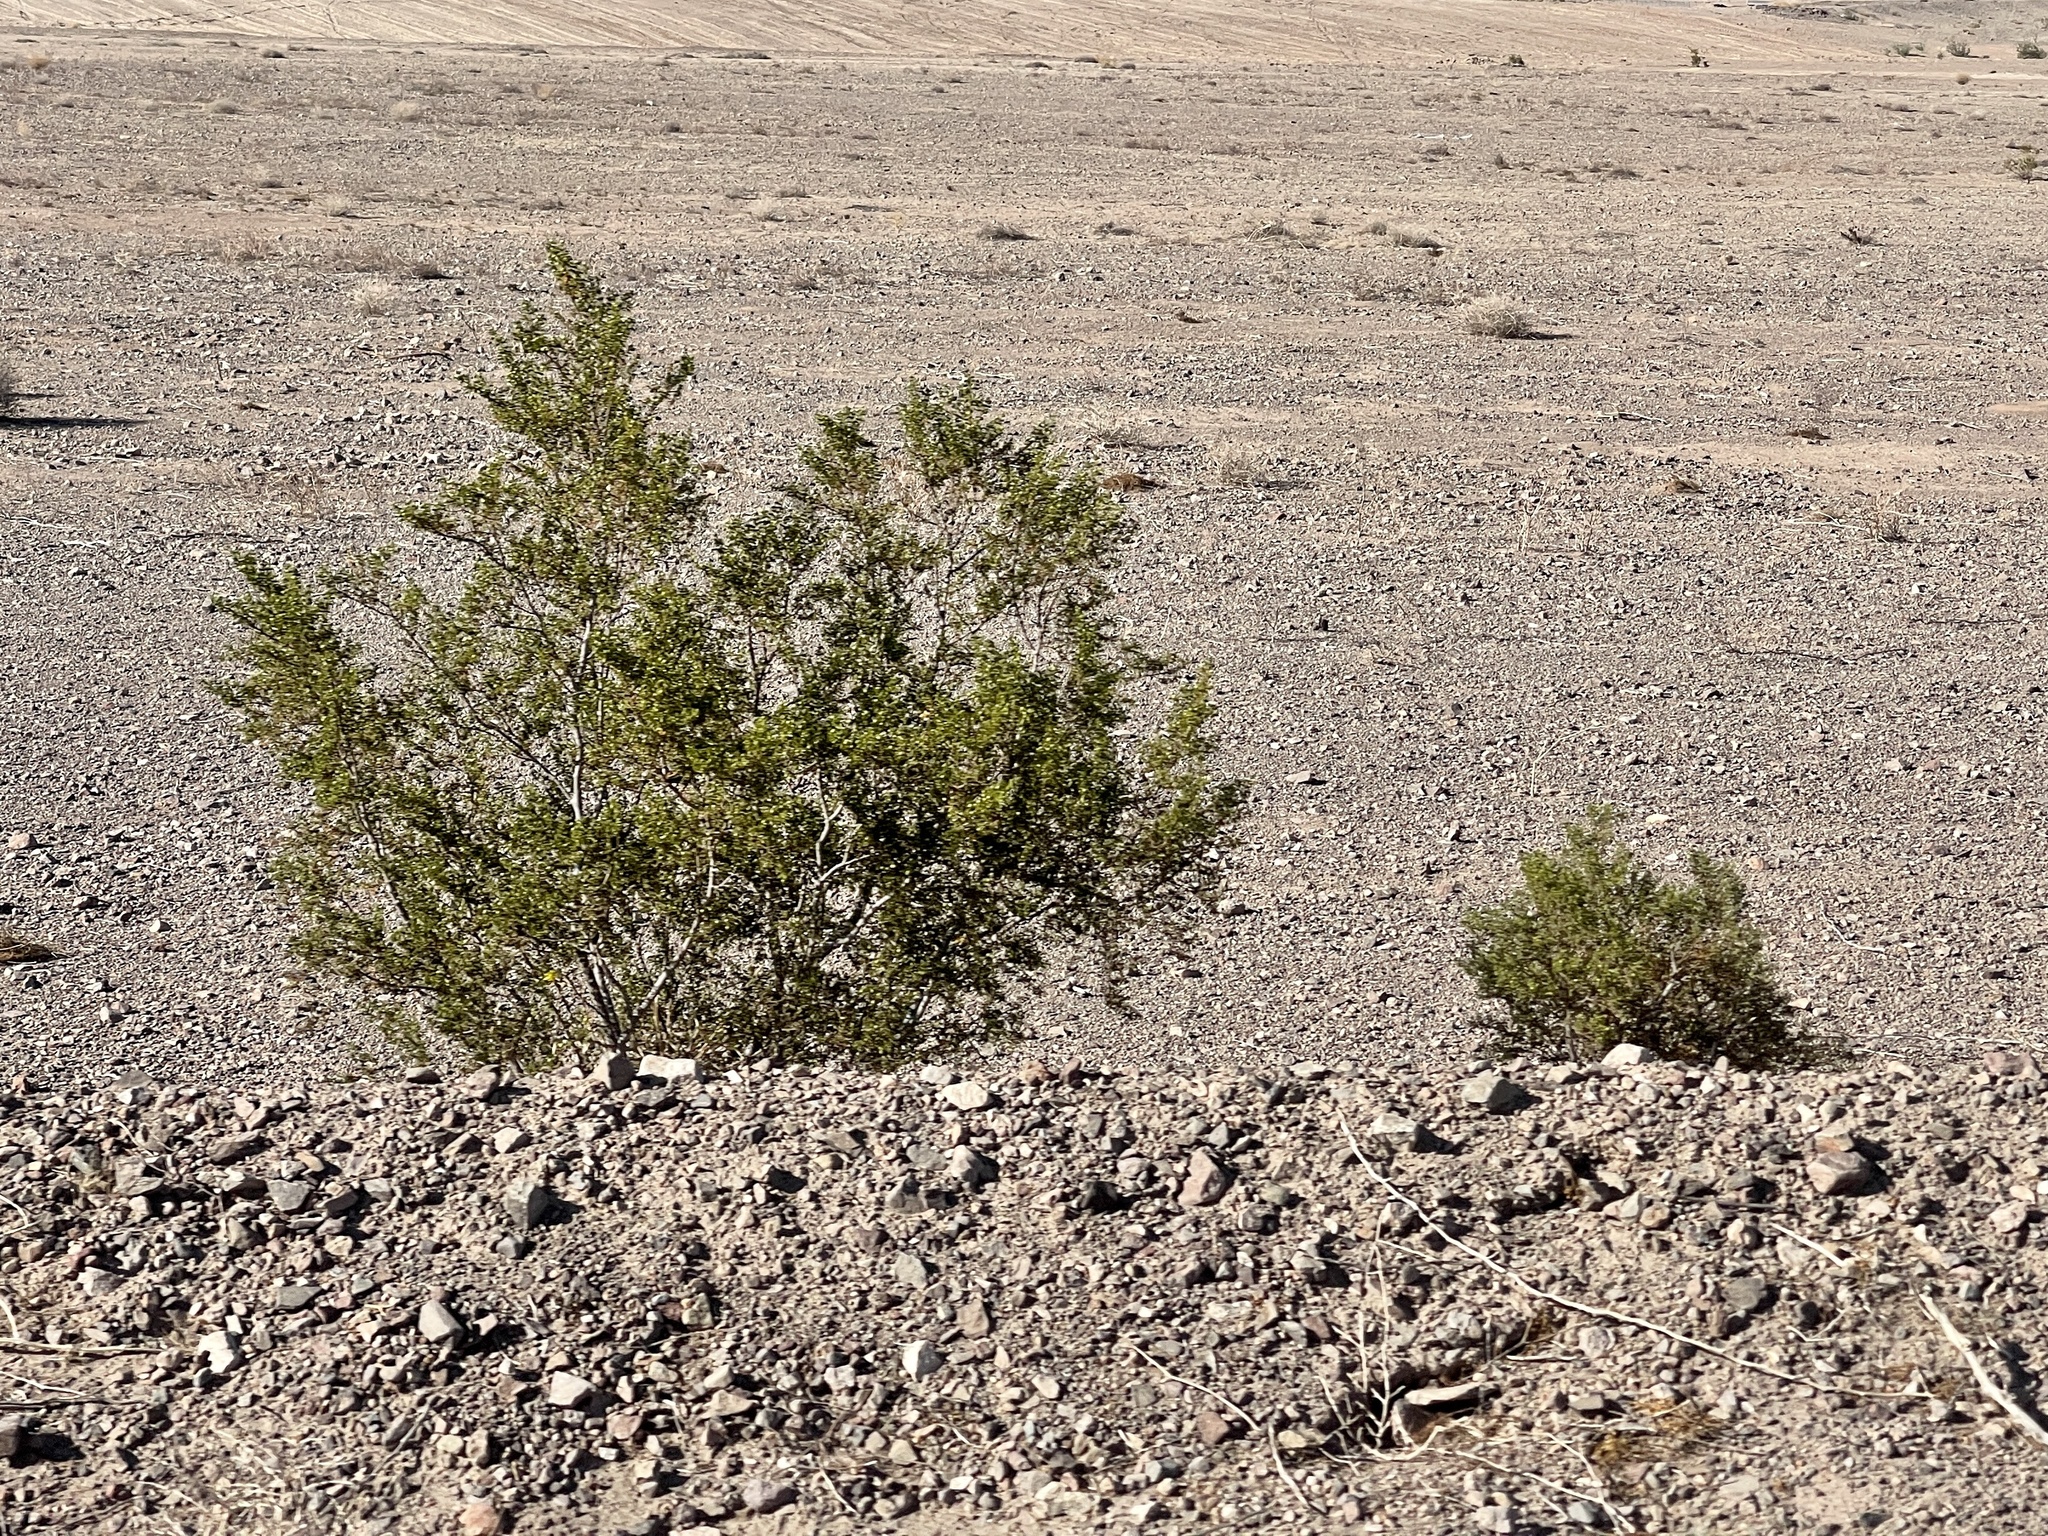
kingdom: Plantae
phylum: Tracheophyta
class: Magnoliopsida
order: Zygophyllales
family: Zygophyllaceae
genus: Larrea
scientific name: Larrea tridentata
